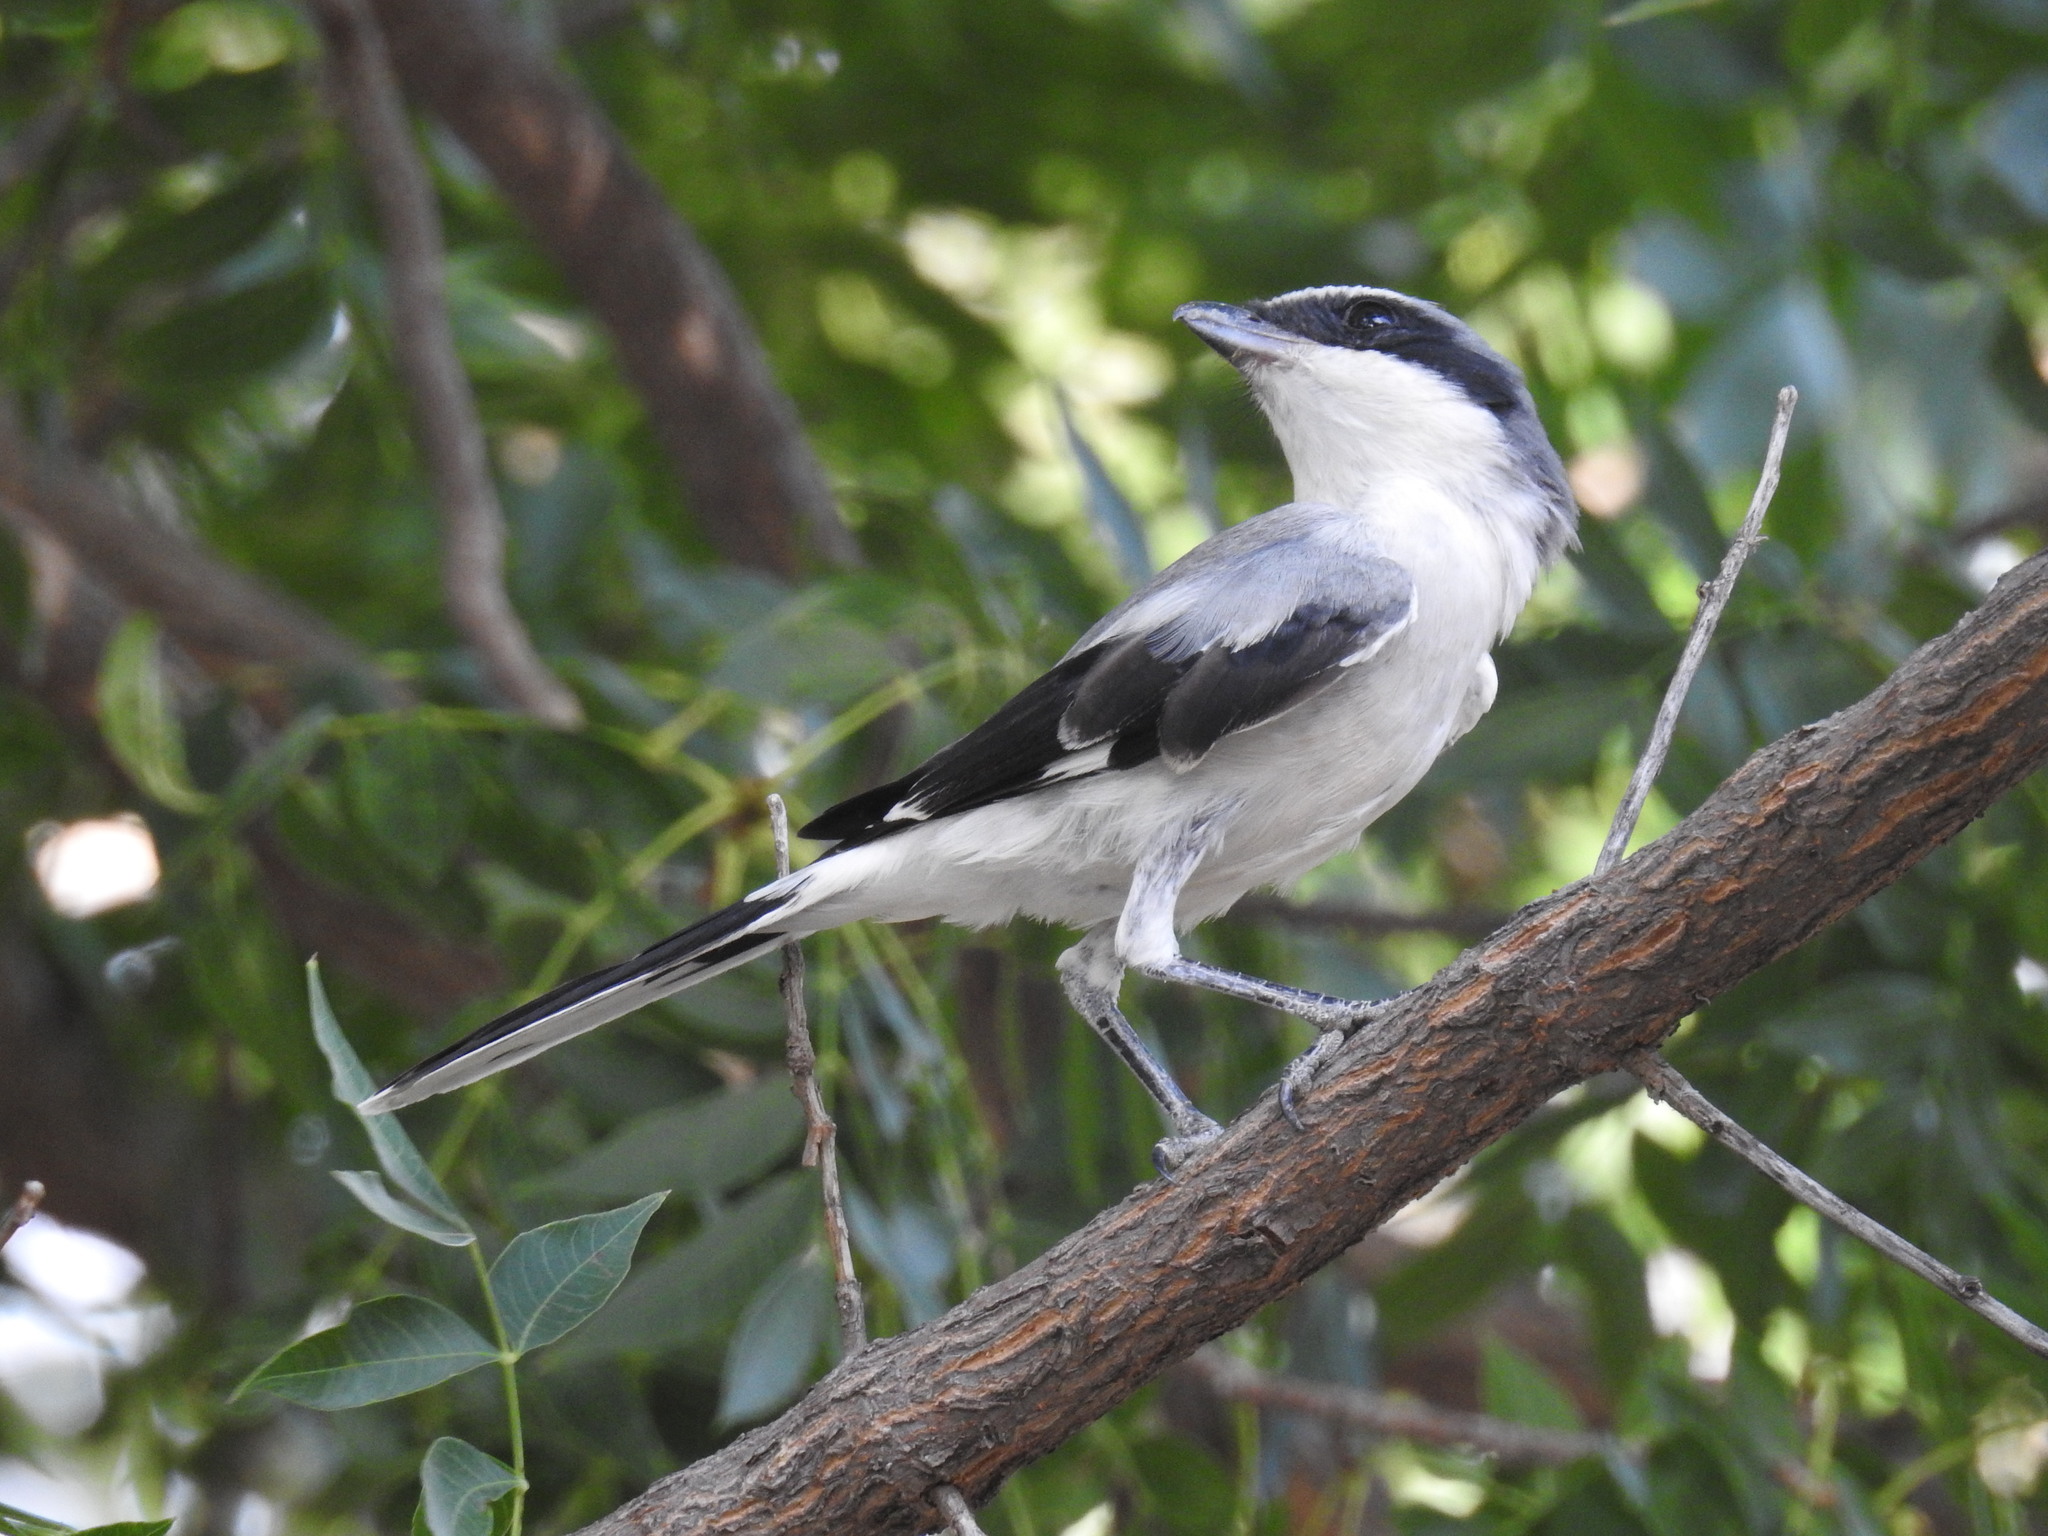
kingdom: Animalia
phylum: Chordata
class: Aves
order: Passeriformes
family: Laniidae
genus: Lanius
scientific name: Lanius ludovicianus
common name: Loggerhead shrike
